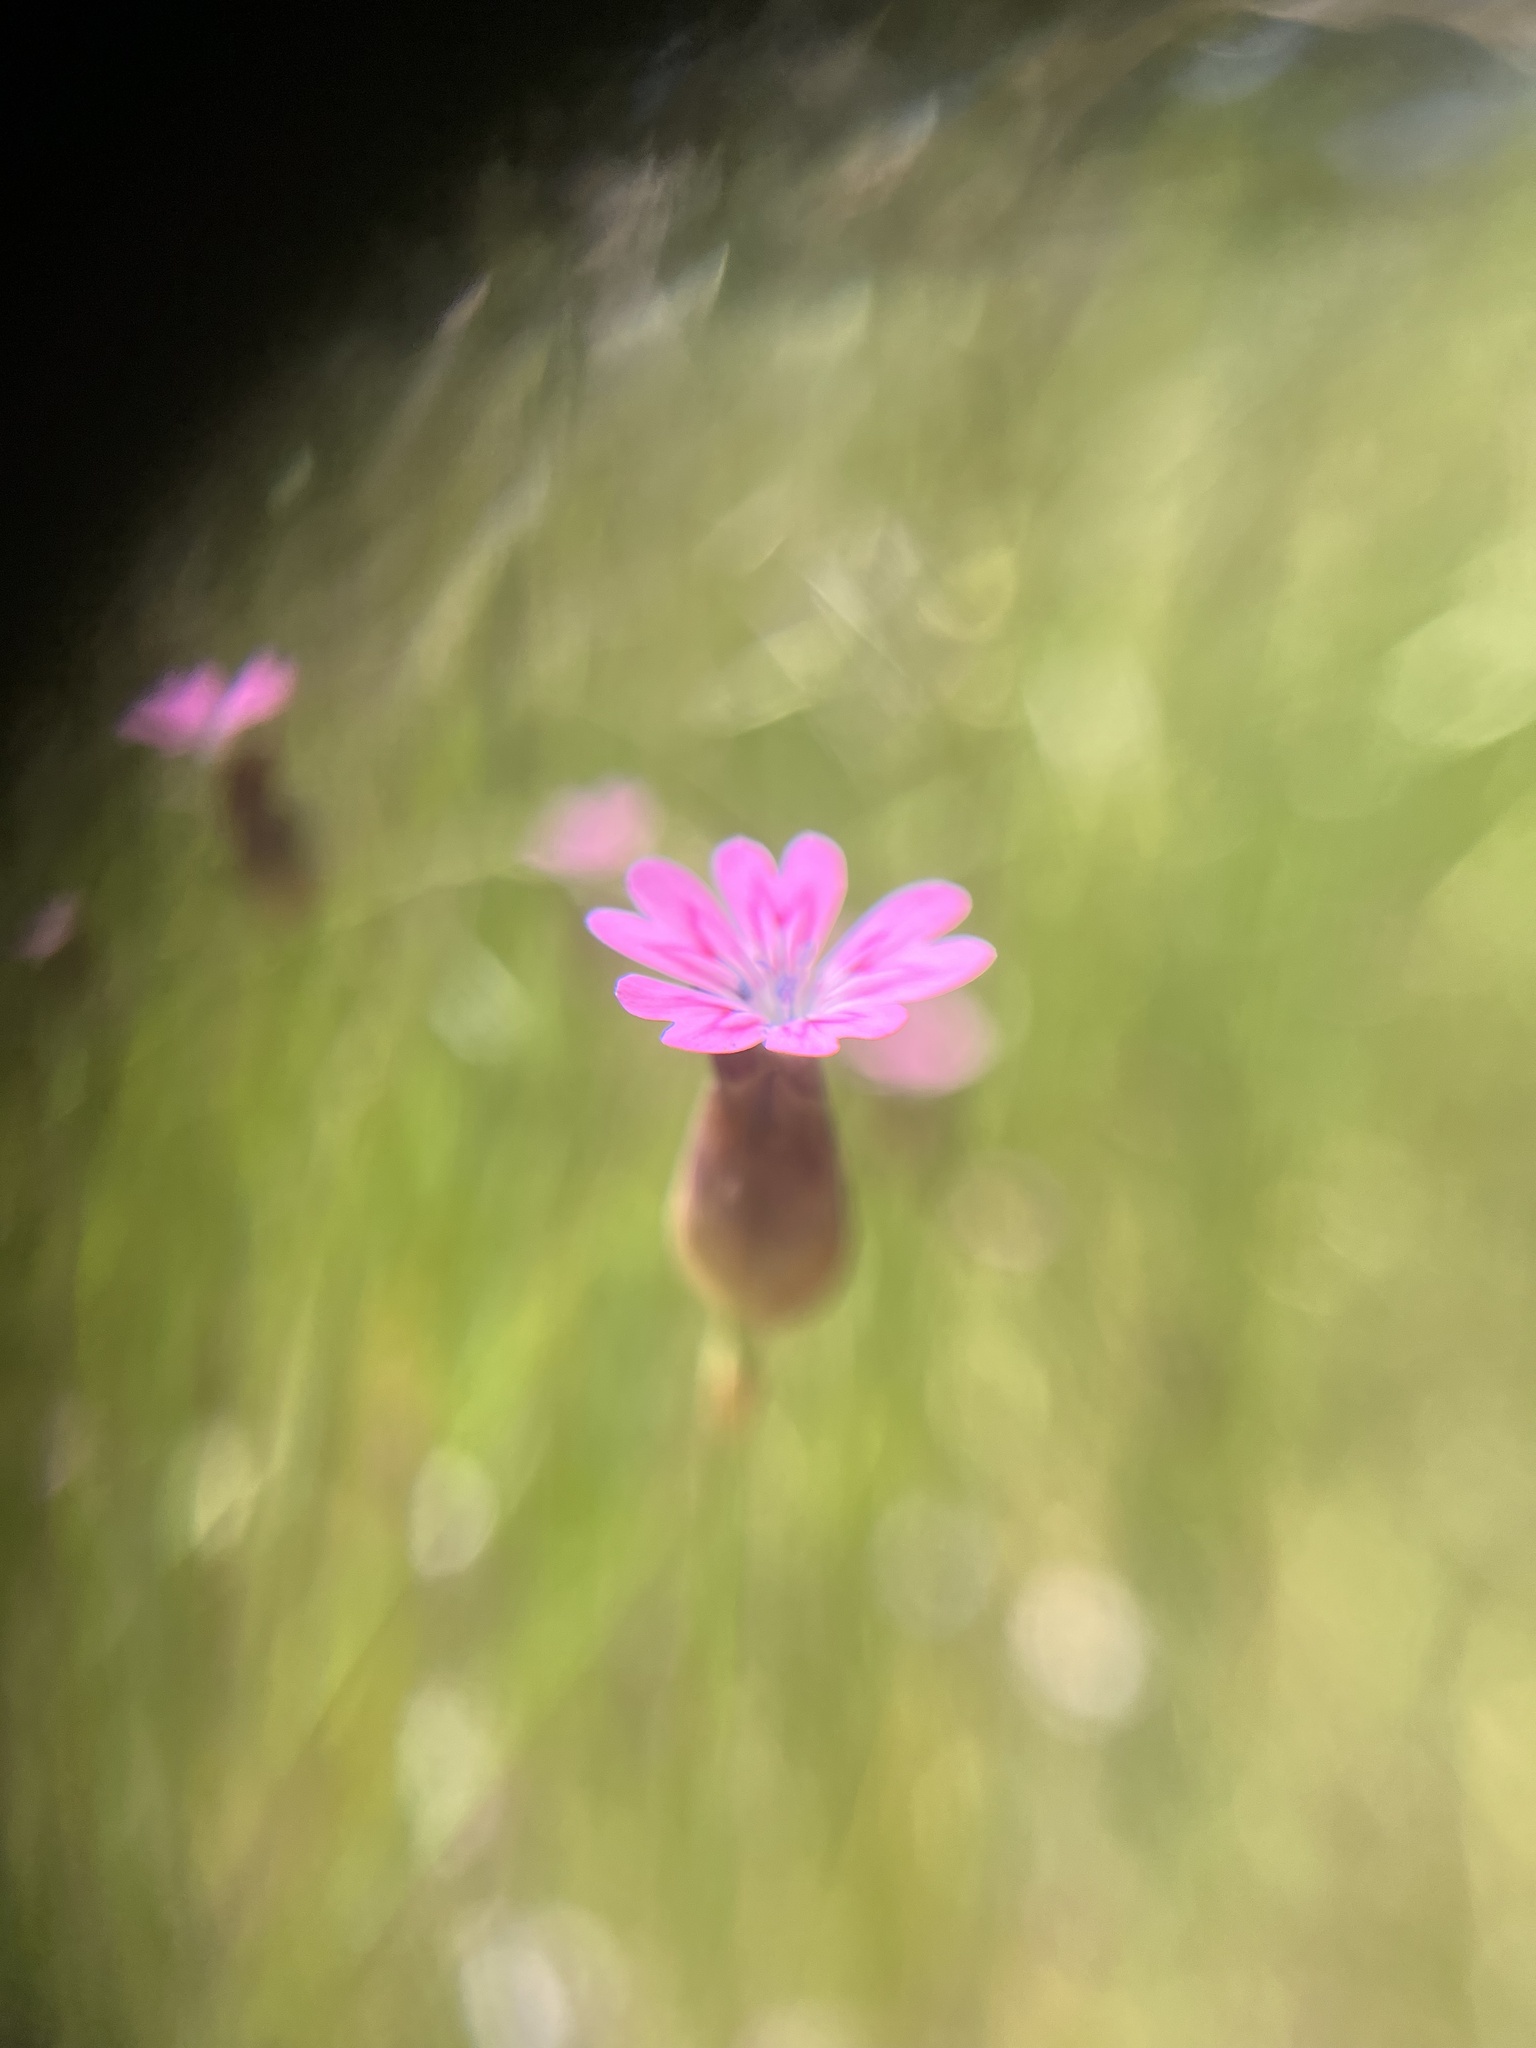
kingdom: Plantae
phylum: Tracheophyta
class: Magnoliopsida
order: Caryophyllales
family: Caryophyllaceae
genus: Petrorhagia
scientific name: Petrorhagia dubia
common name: Hairypink
